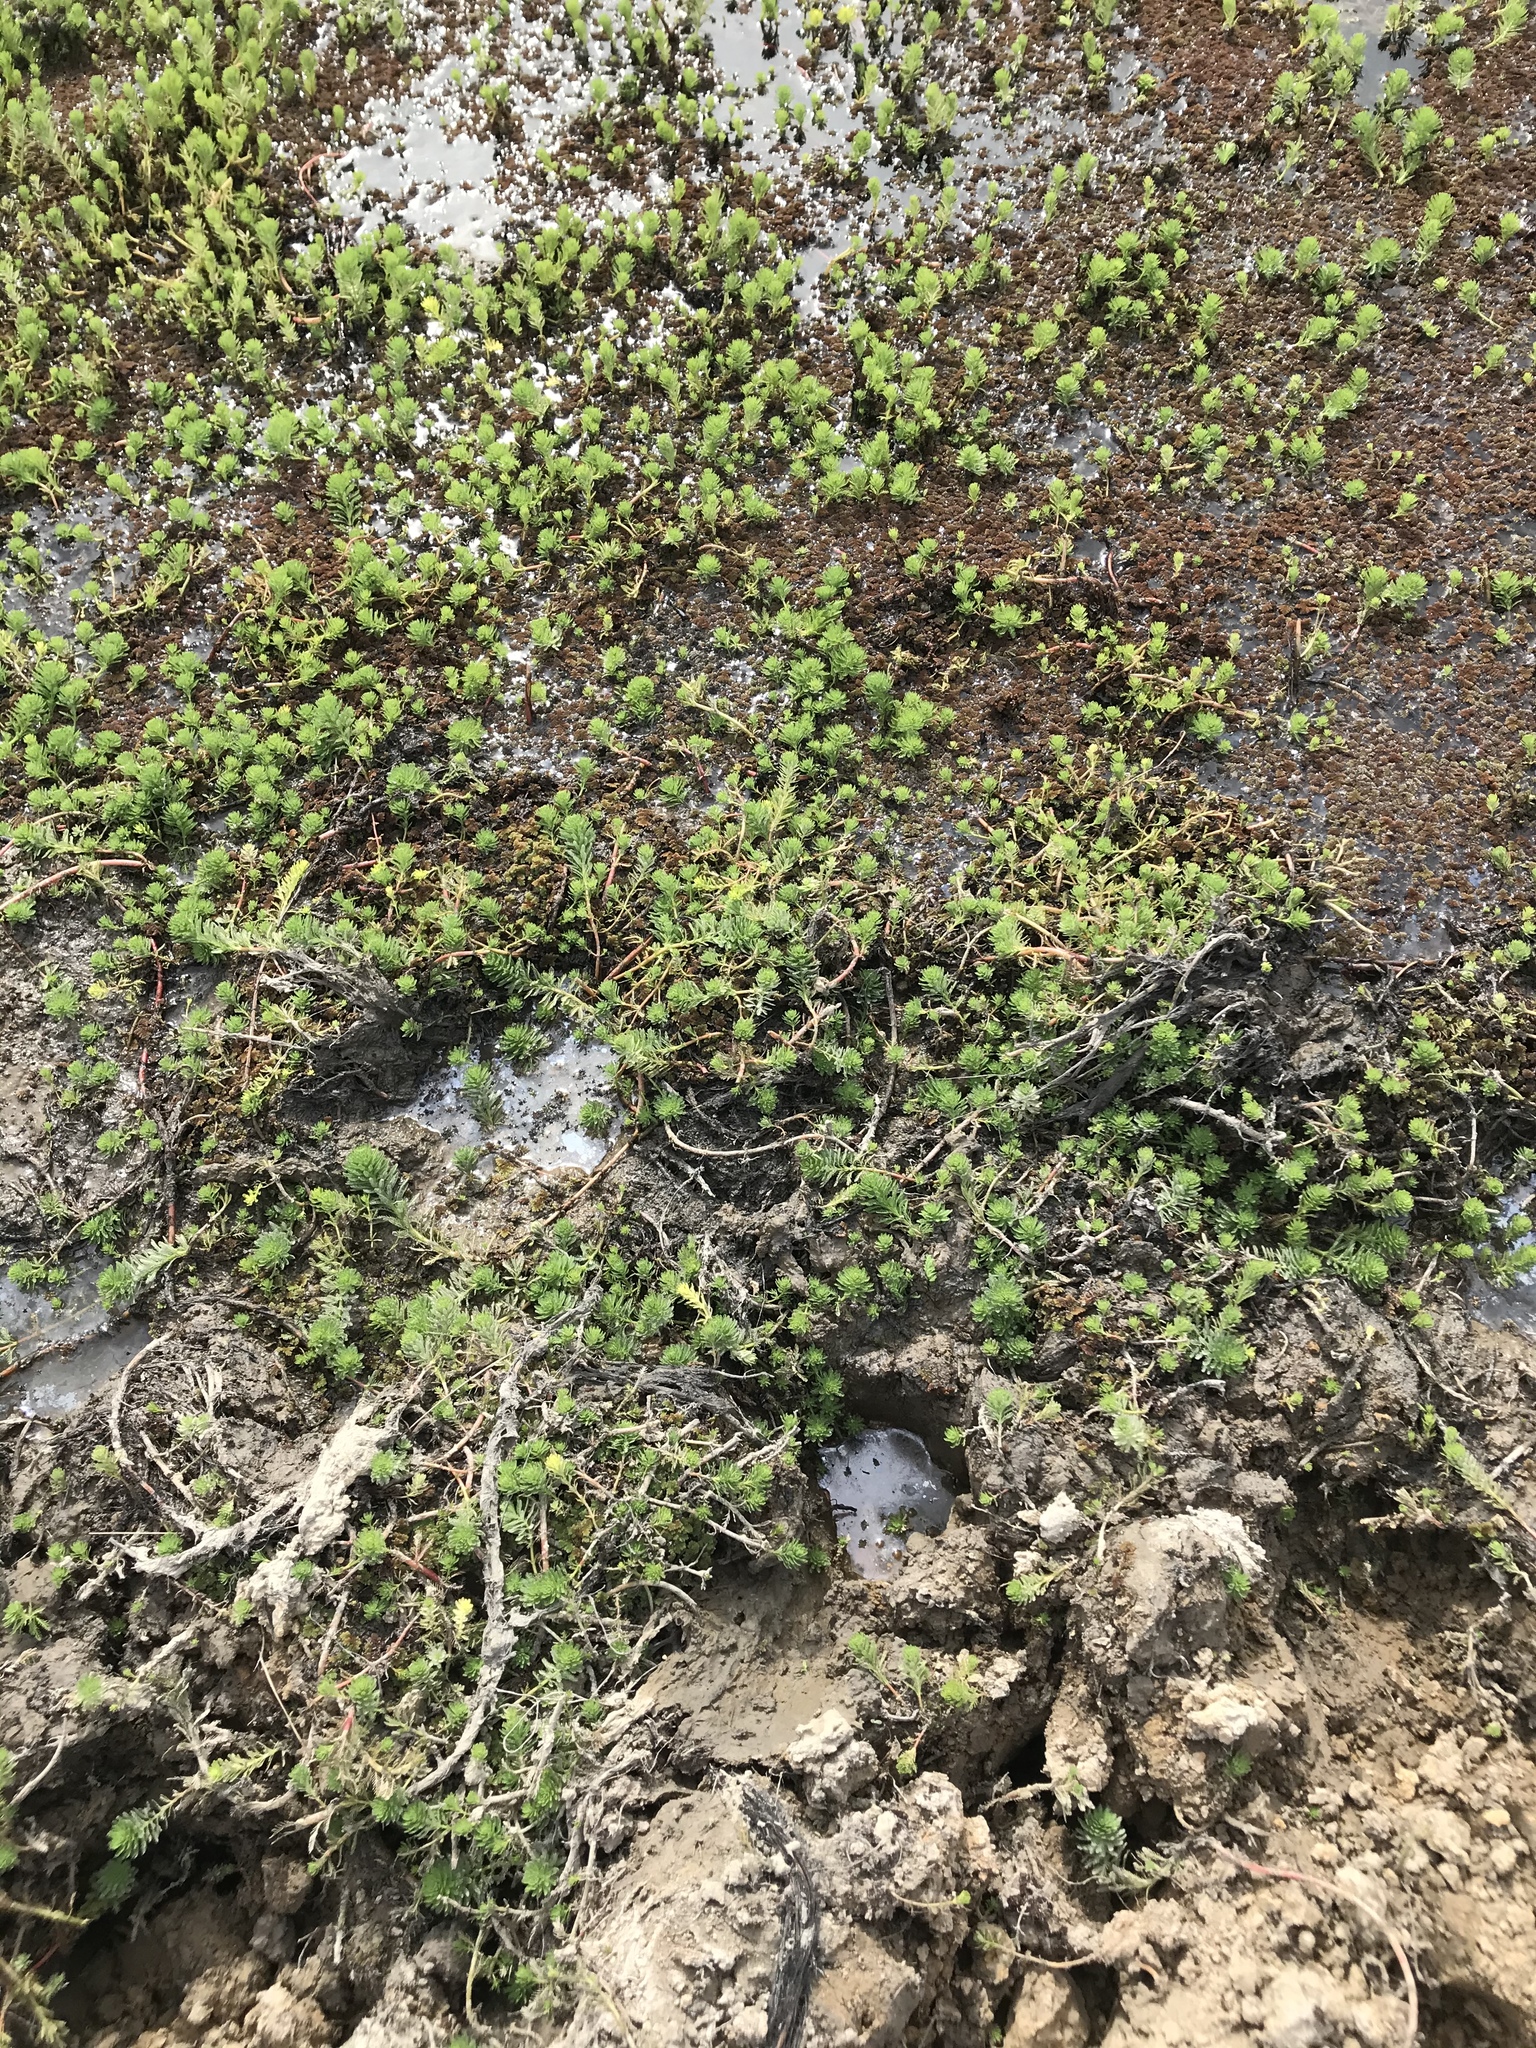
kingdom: Plantae
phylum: Tracheophyta
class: Magnoliopsida
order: Saxifragales
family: Haloragaceae
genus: Myriophyllum
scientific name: Myriophyllum aquaticum
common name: Parrot's feather
